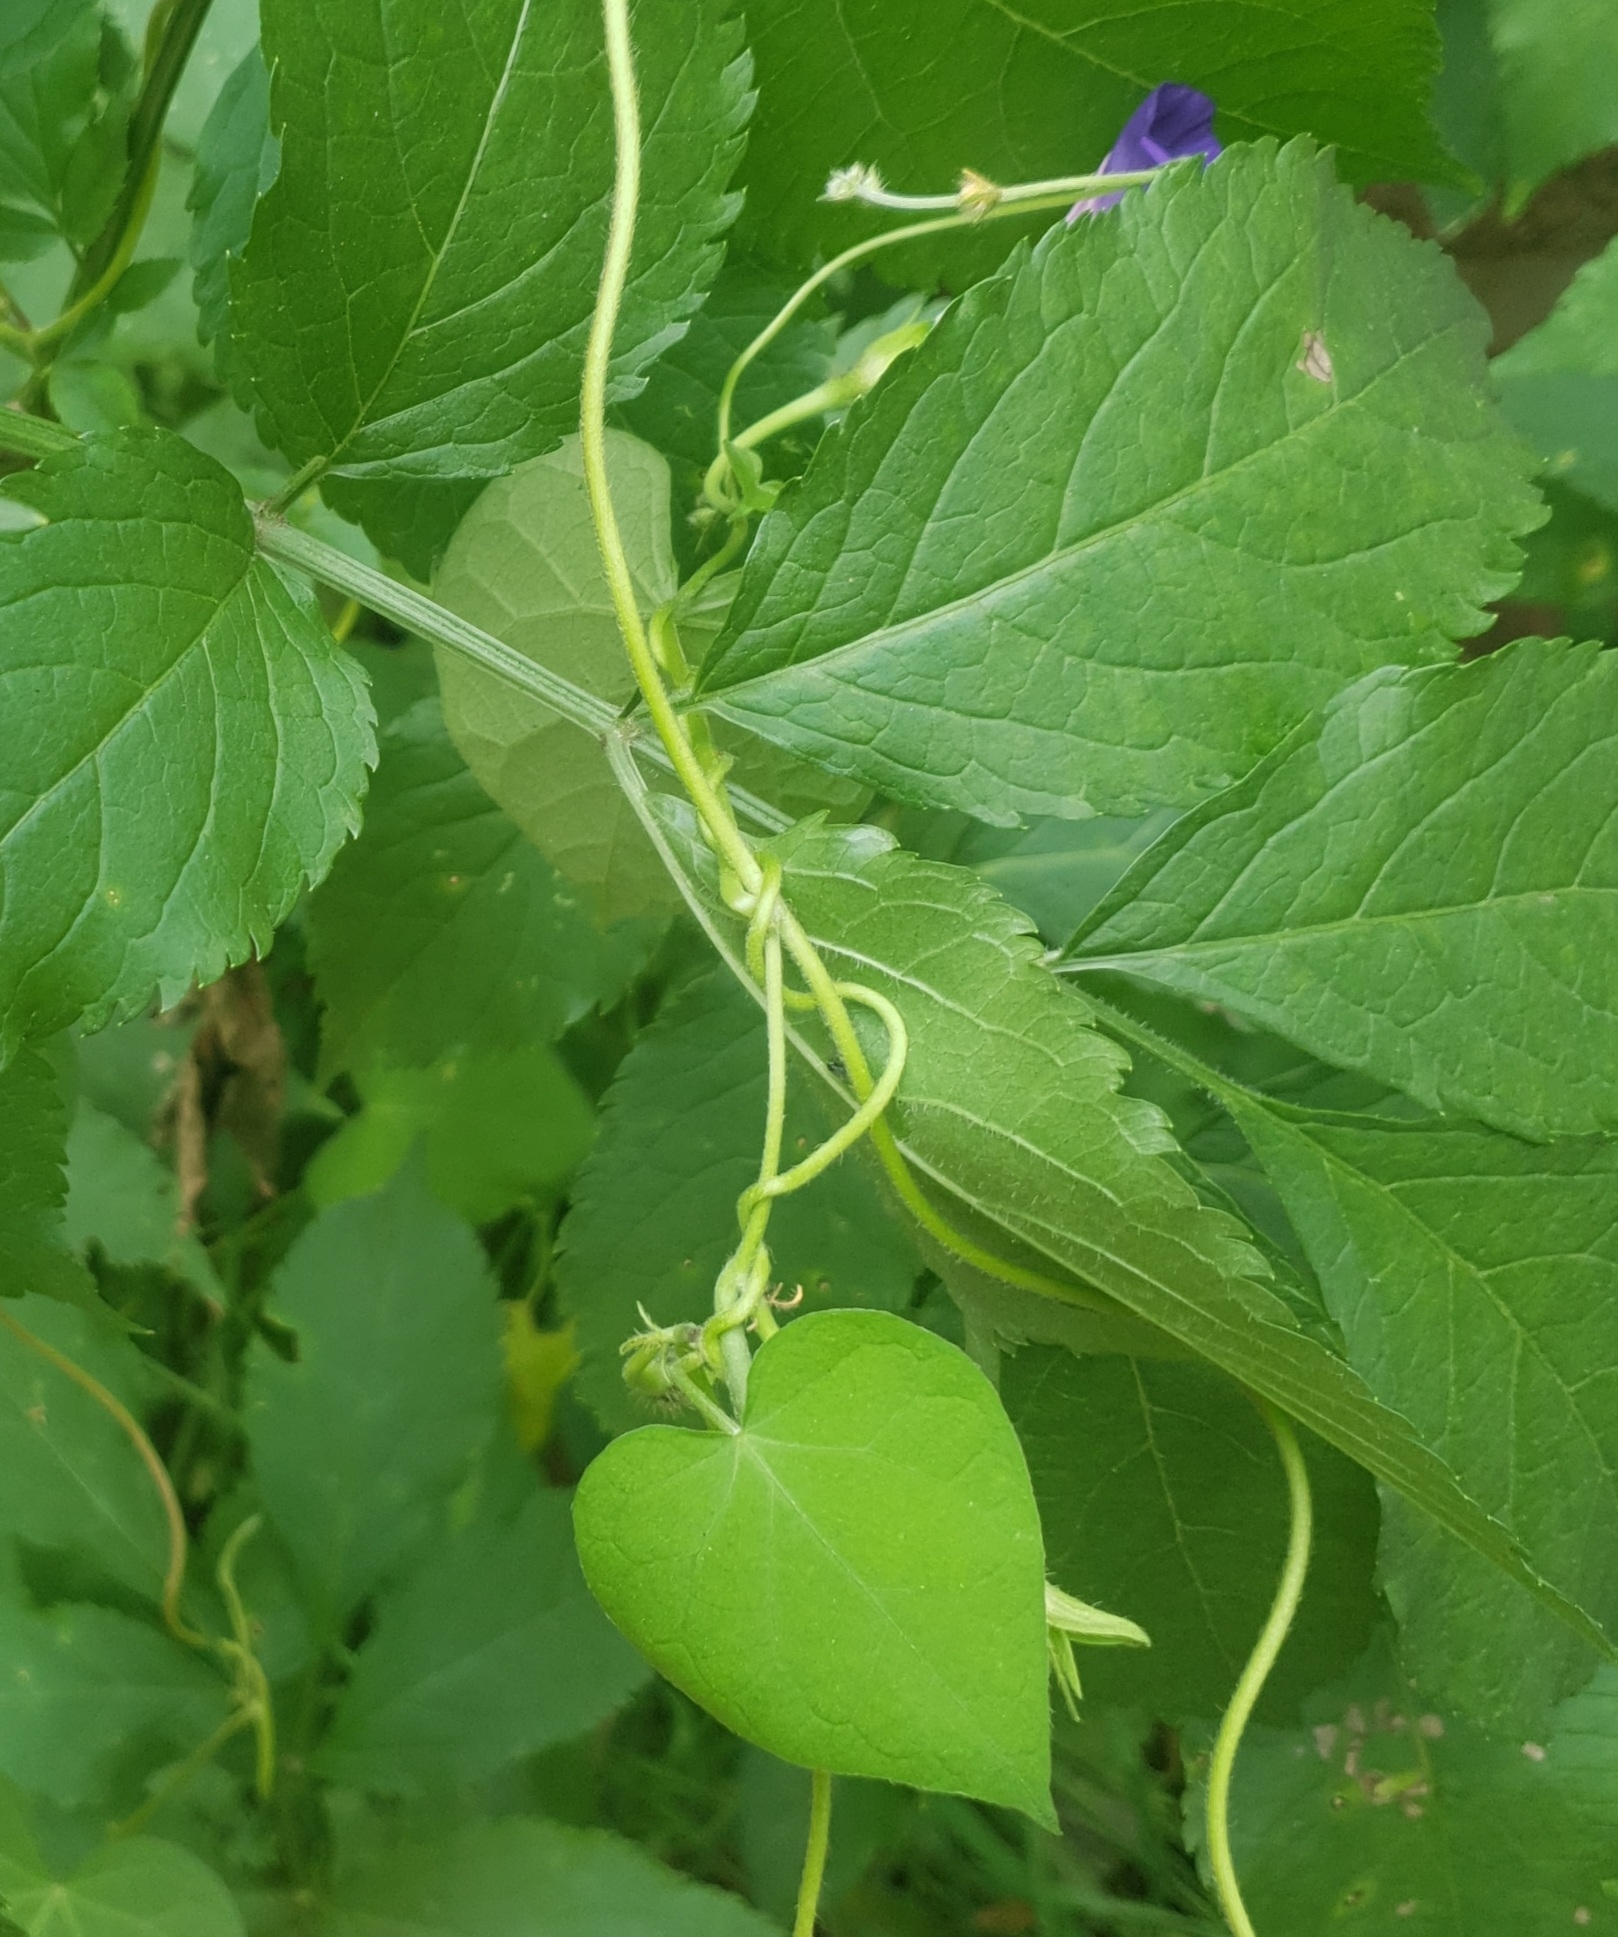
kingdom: Plantae
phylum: Tracheophyta
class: Magnoliopsida
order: Solanales
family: Convolvulaceae
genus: Ipomoea
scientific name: Ipomoea purpurea
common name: Common morning-glory
